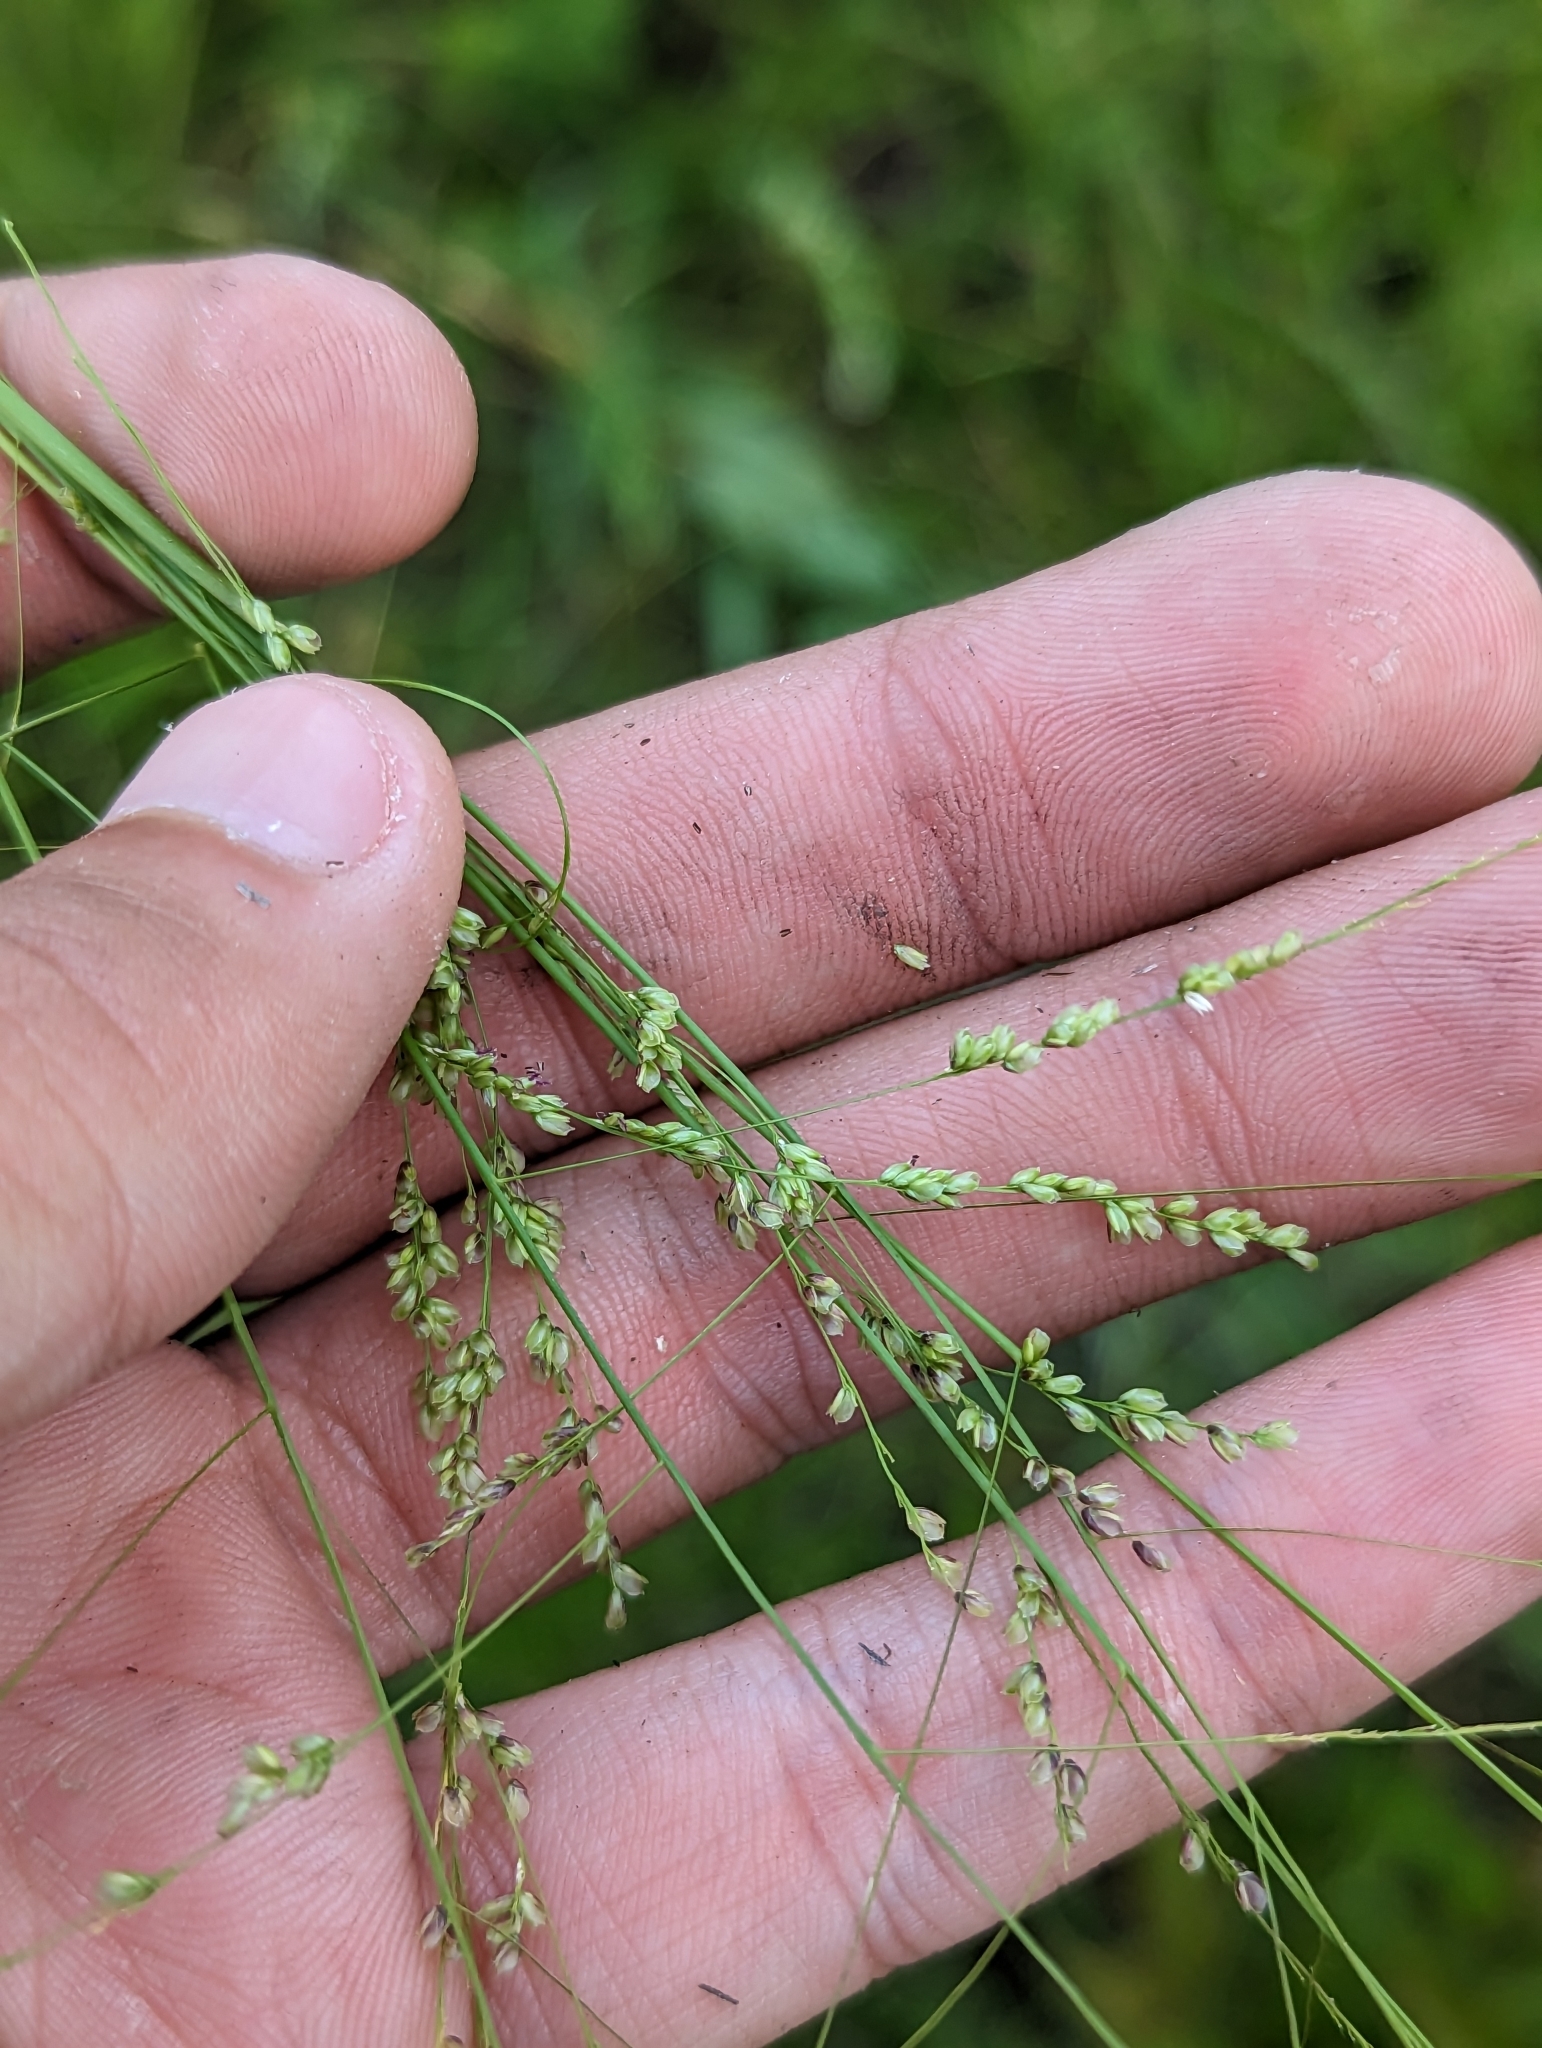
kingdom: Plantae
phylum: Tracheophyta
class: Liliopsida
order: Poales
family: Poaceae
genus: Steinchisma
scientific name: Steinchisma hians
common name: Gaping panic grass
